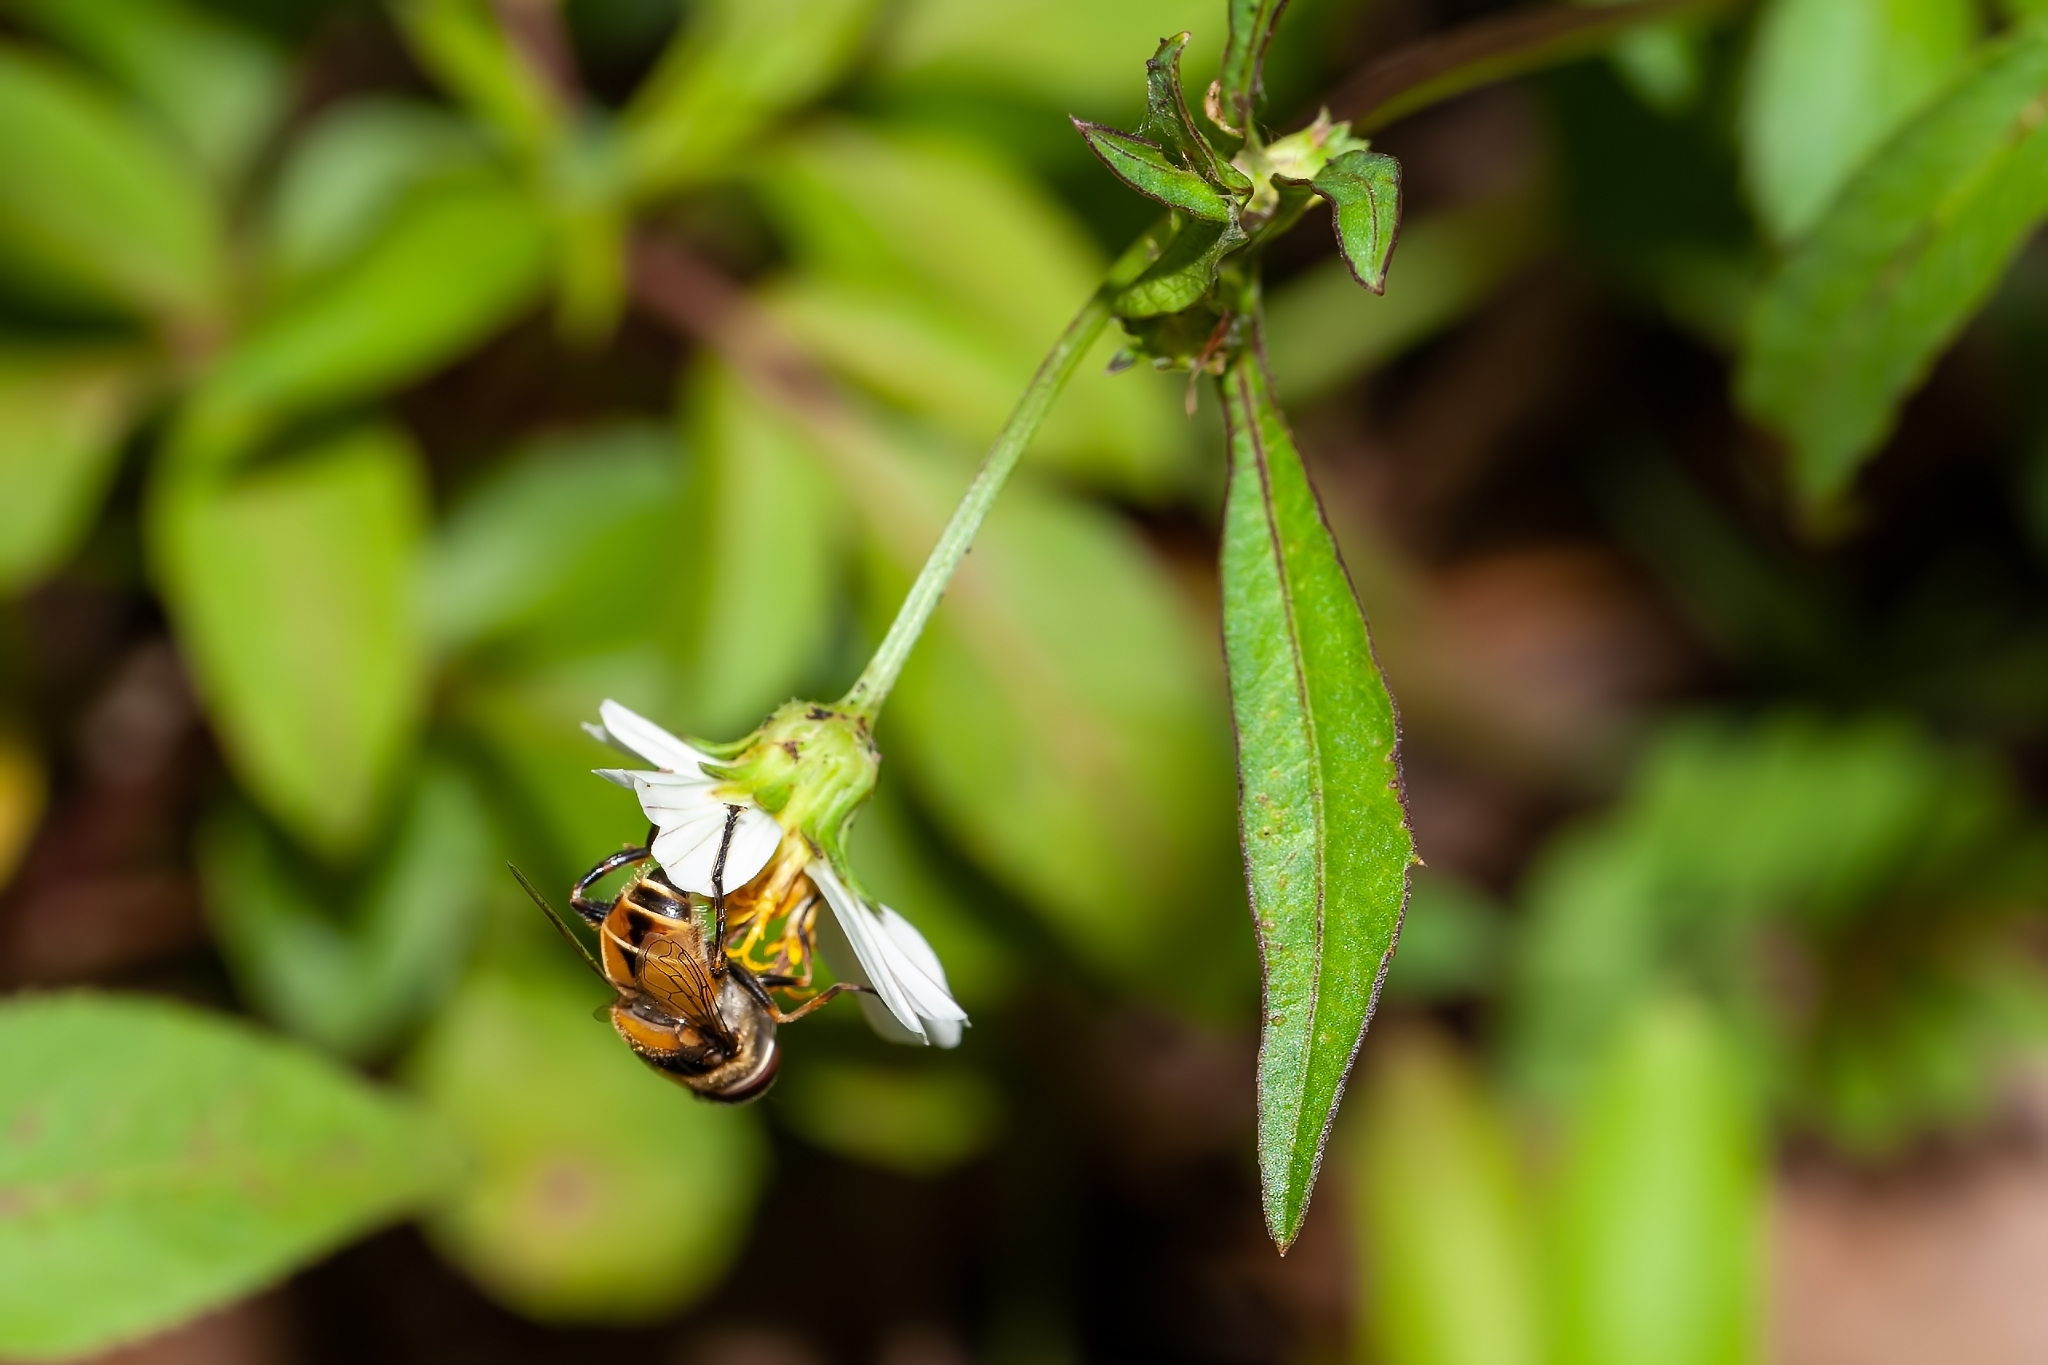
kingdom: Animalia
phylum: Arthropoda
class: Insecta
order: Diptera
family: Syrphidae
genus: Palpada
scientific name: Palpada pusilla
